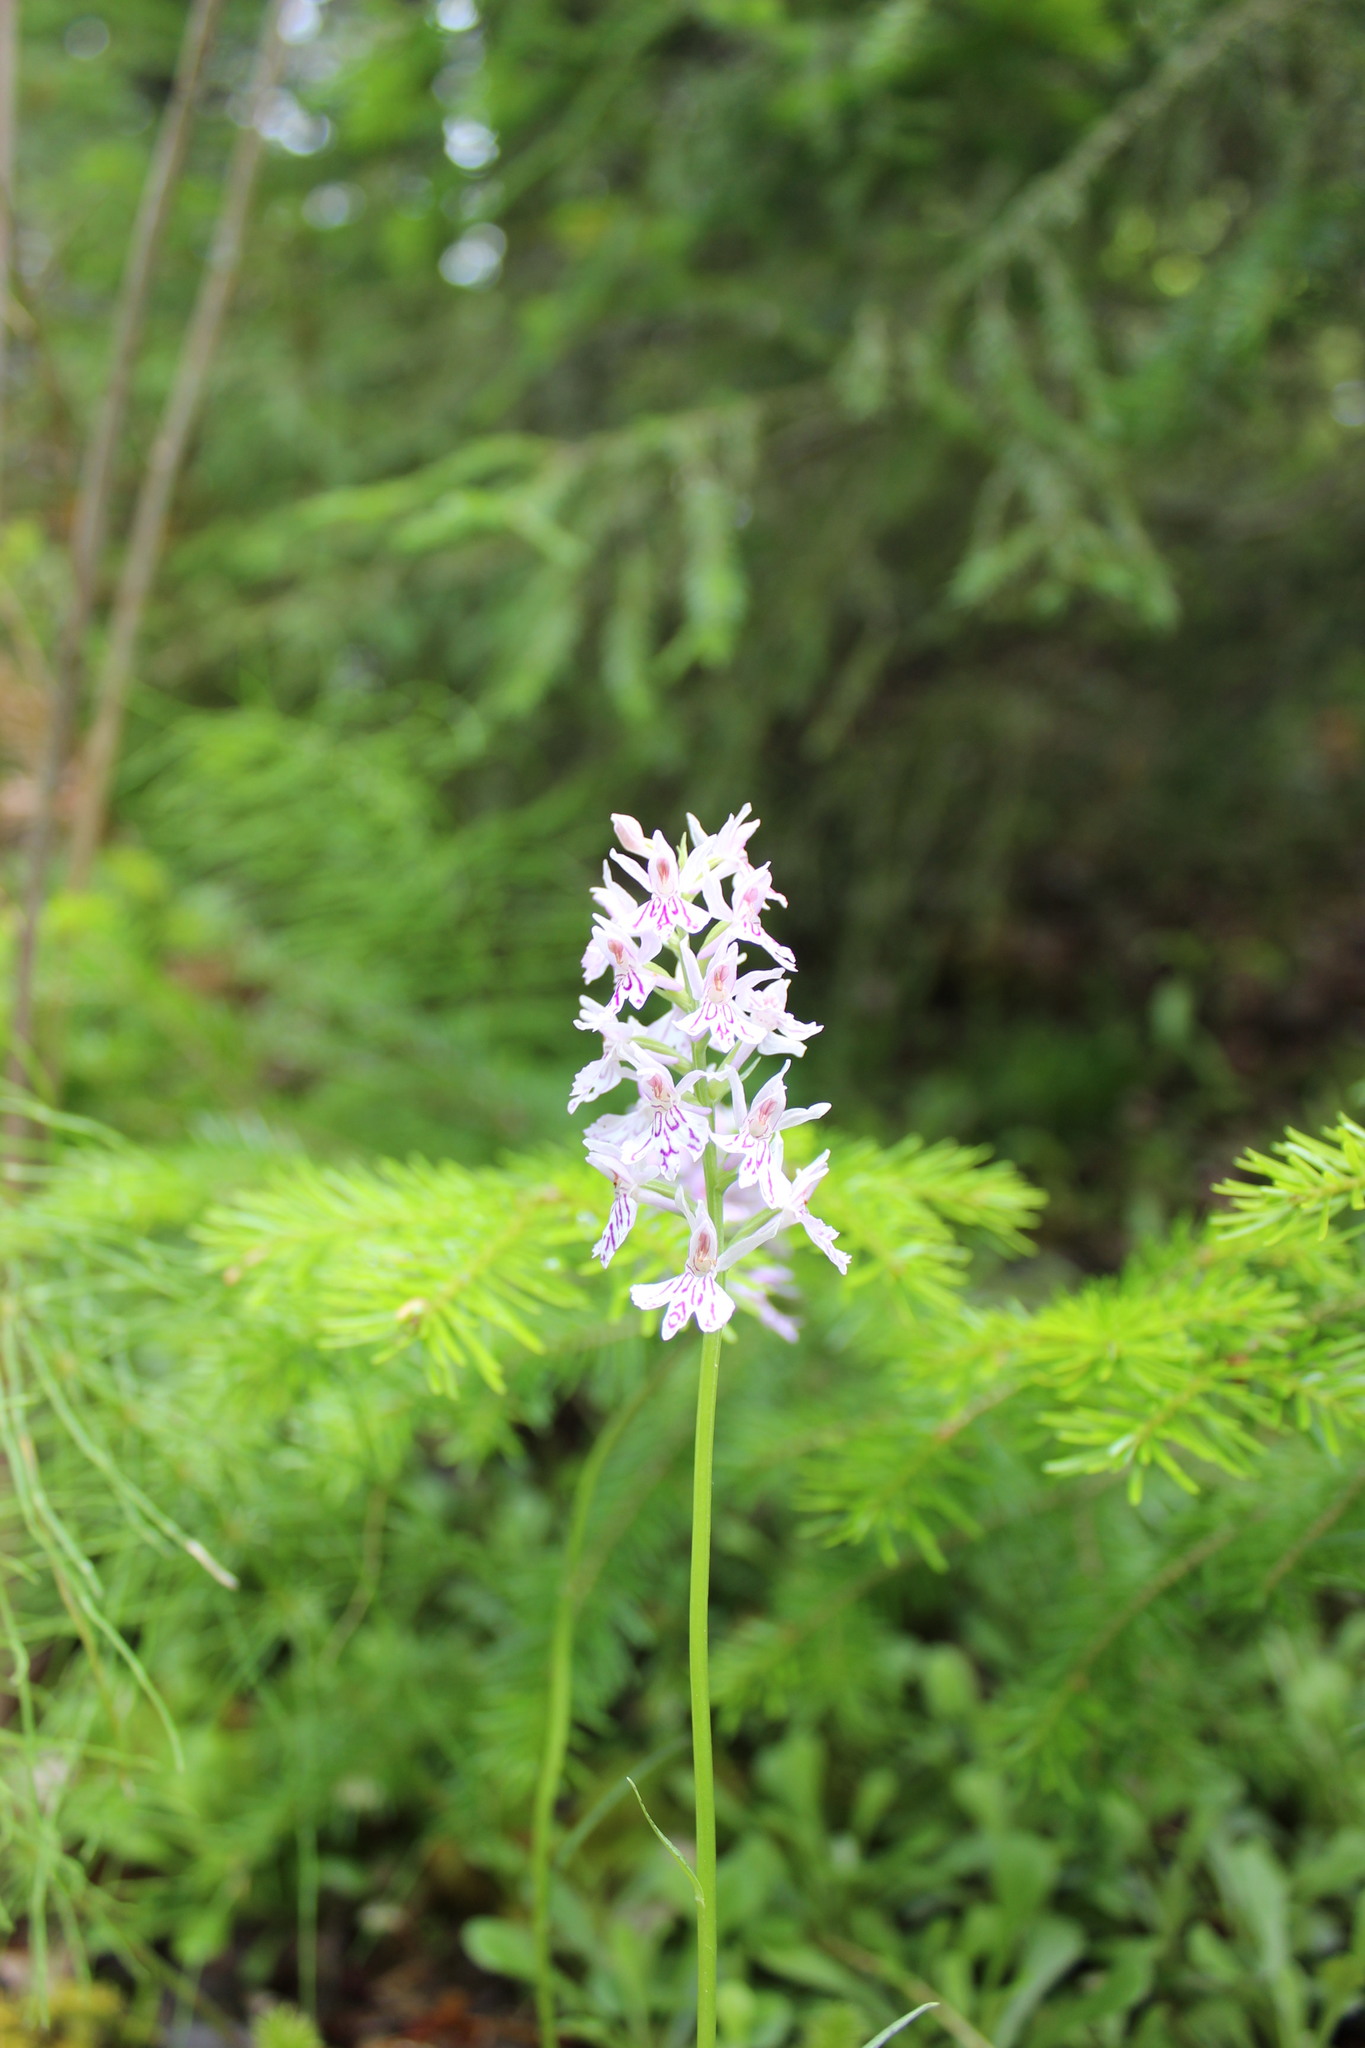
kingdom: Plantae
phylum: Tracheophyta
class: Liliopsida
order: Asparagales
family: Orchidaceae
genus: Dactylorhiza
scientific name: Dactylorhiza maculata
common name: Heath spotted-orchid
